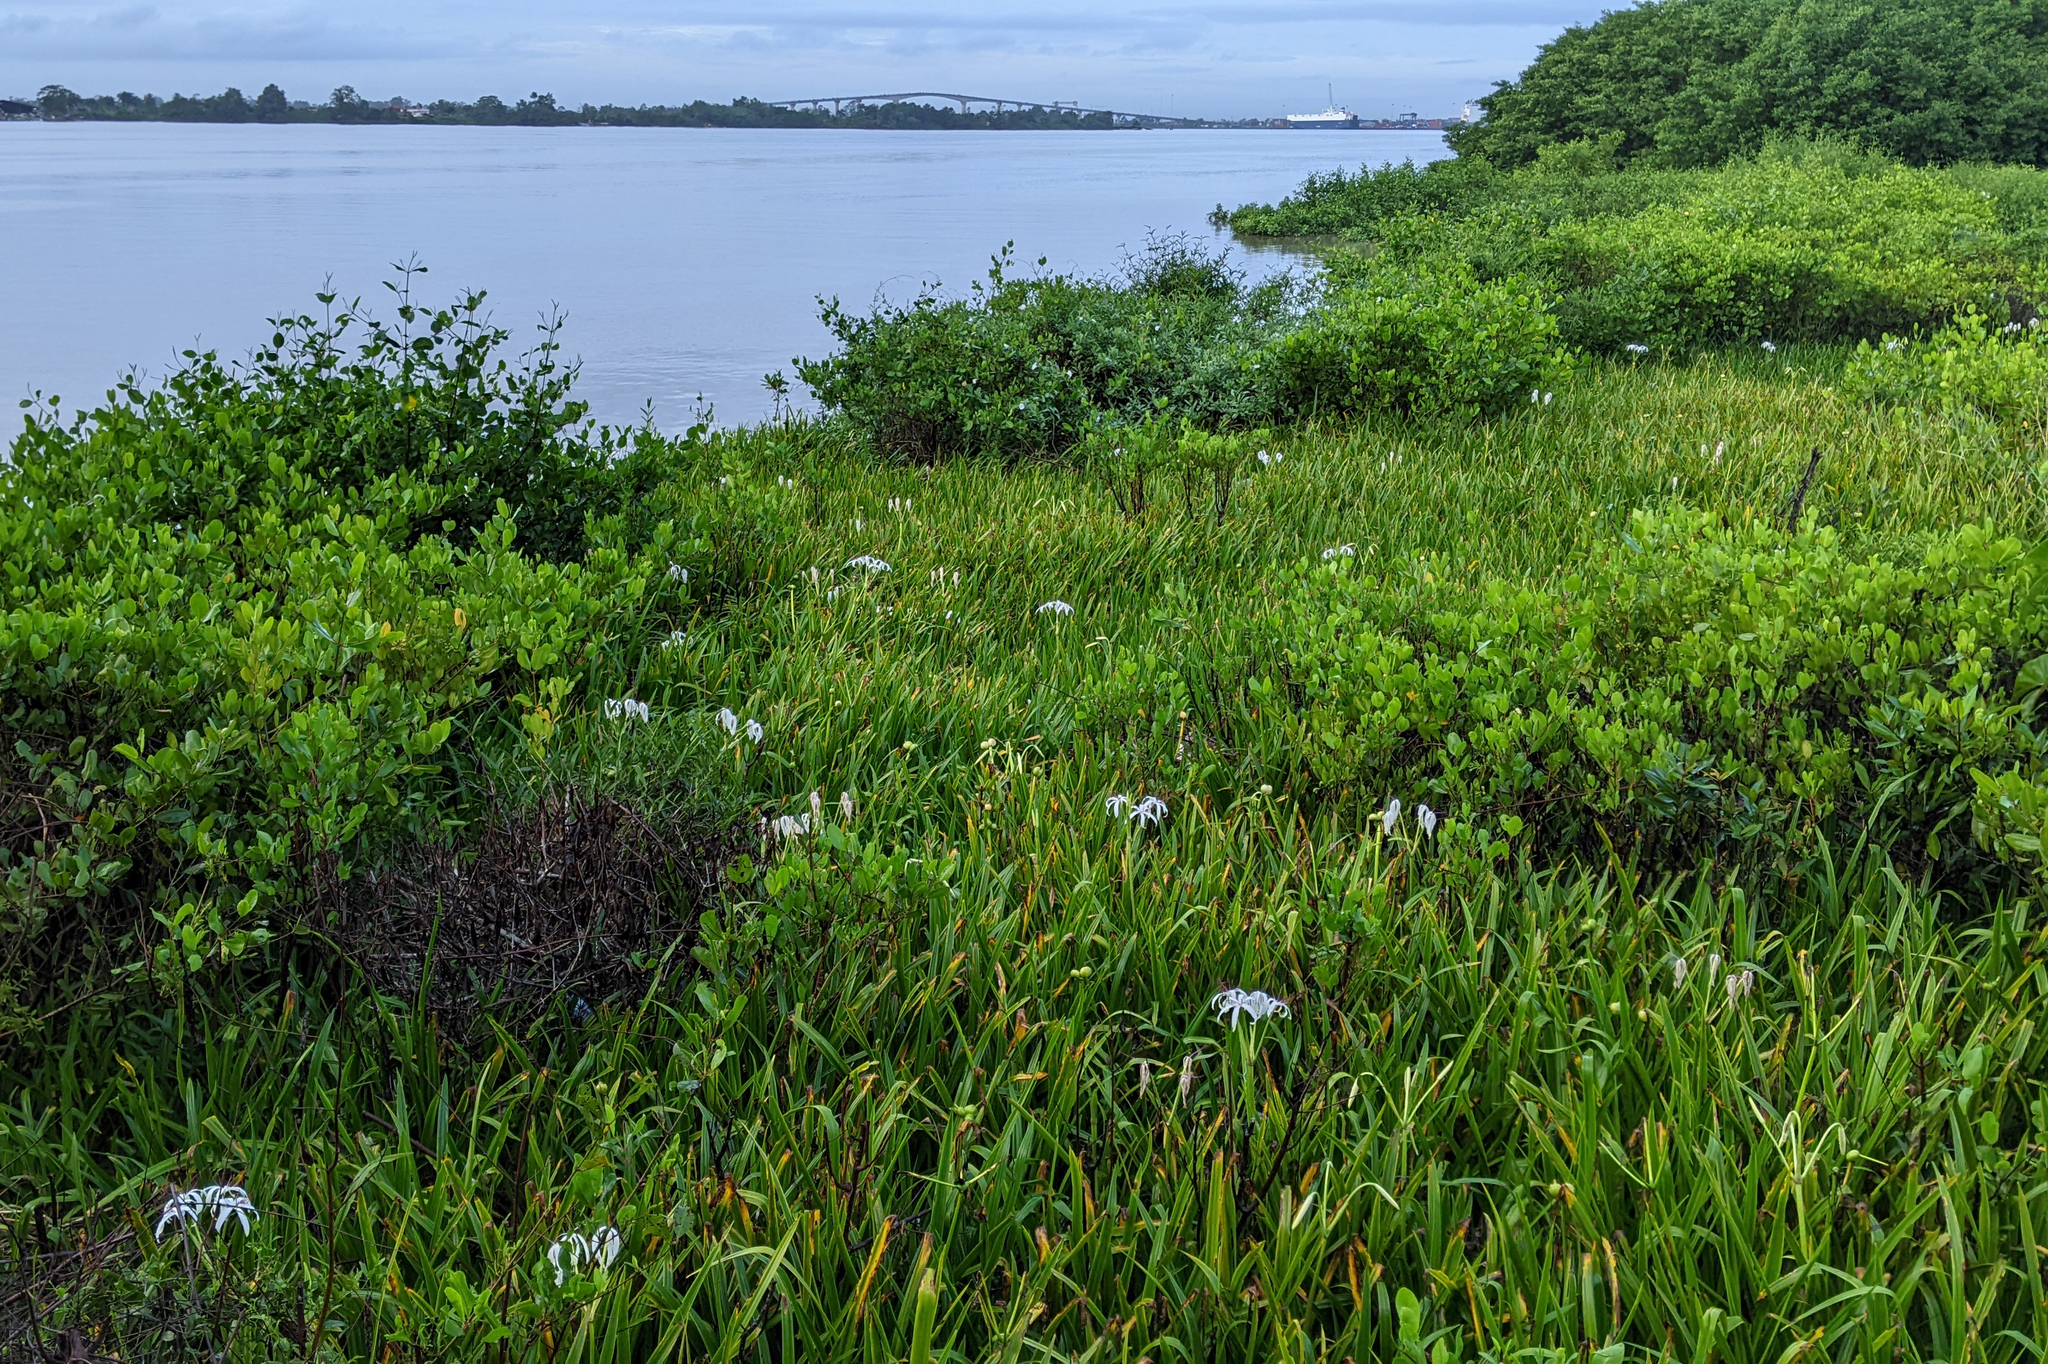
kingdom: Plantae
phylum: Tracheophyta
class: Liliopsida
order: Asparagales
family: Amaryllidaceae
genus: Crinum
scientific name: Crinum erubescens
